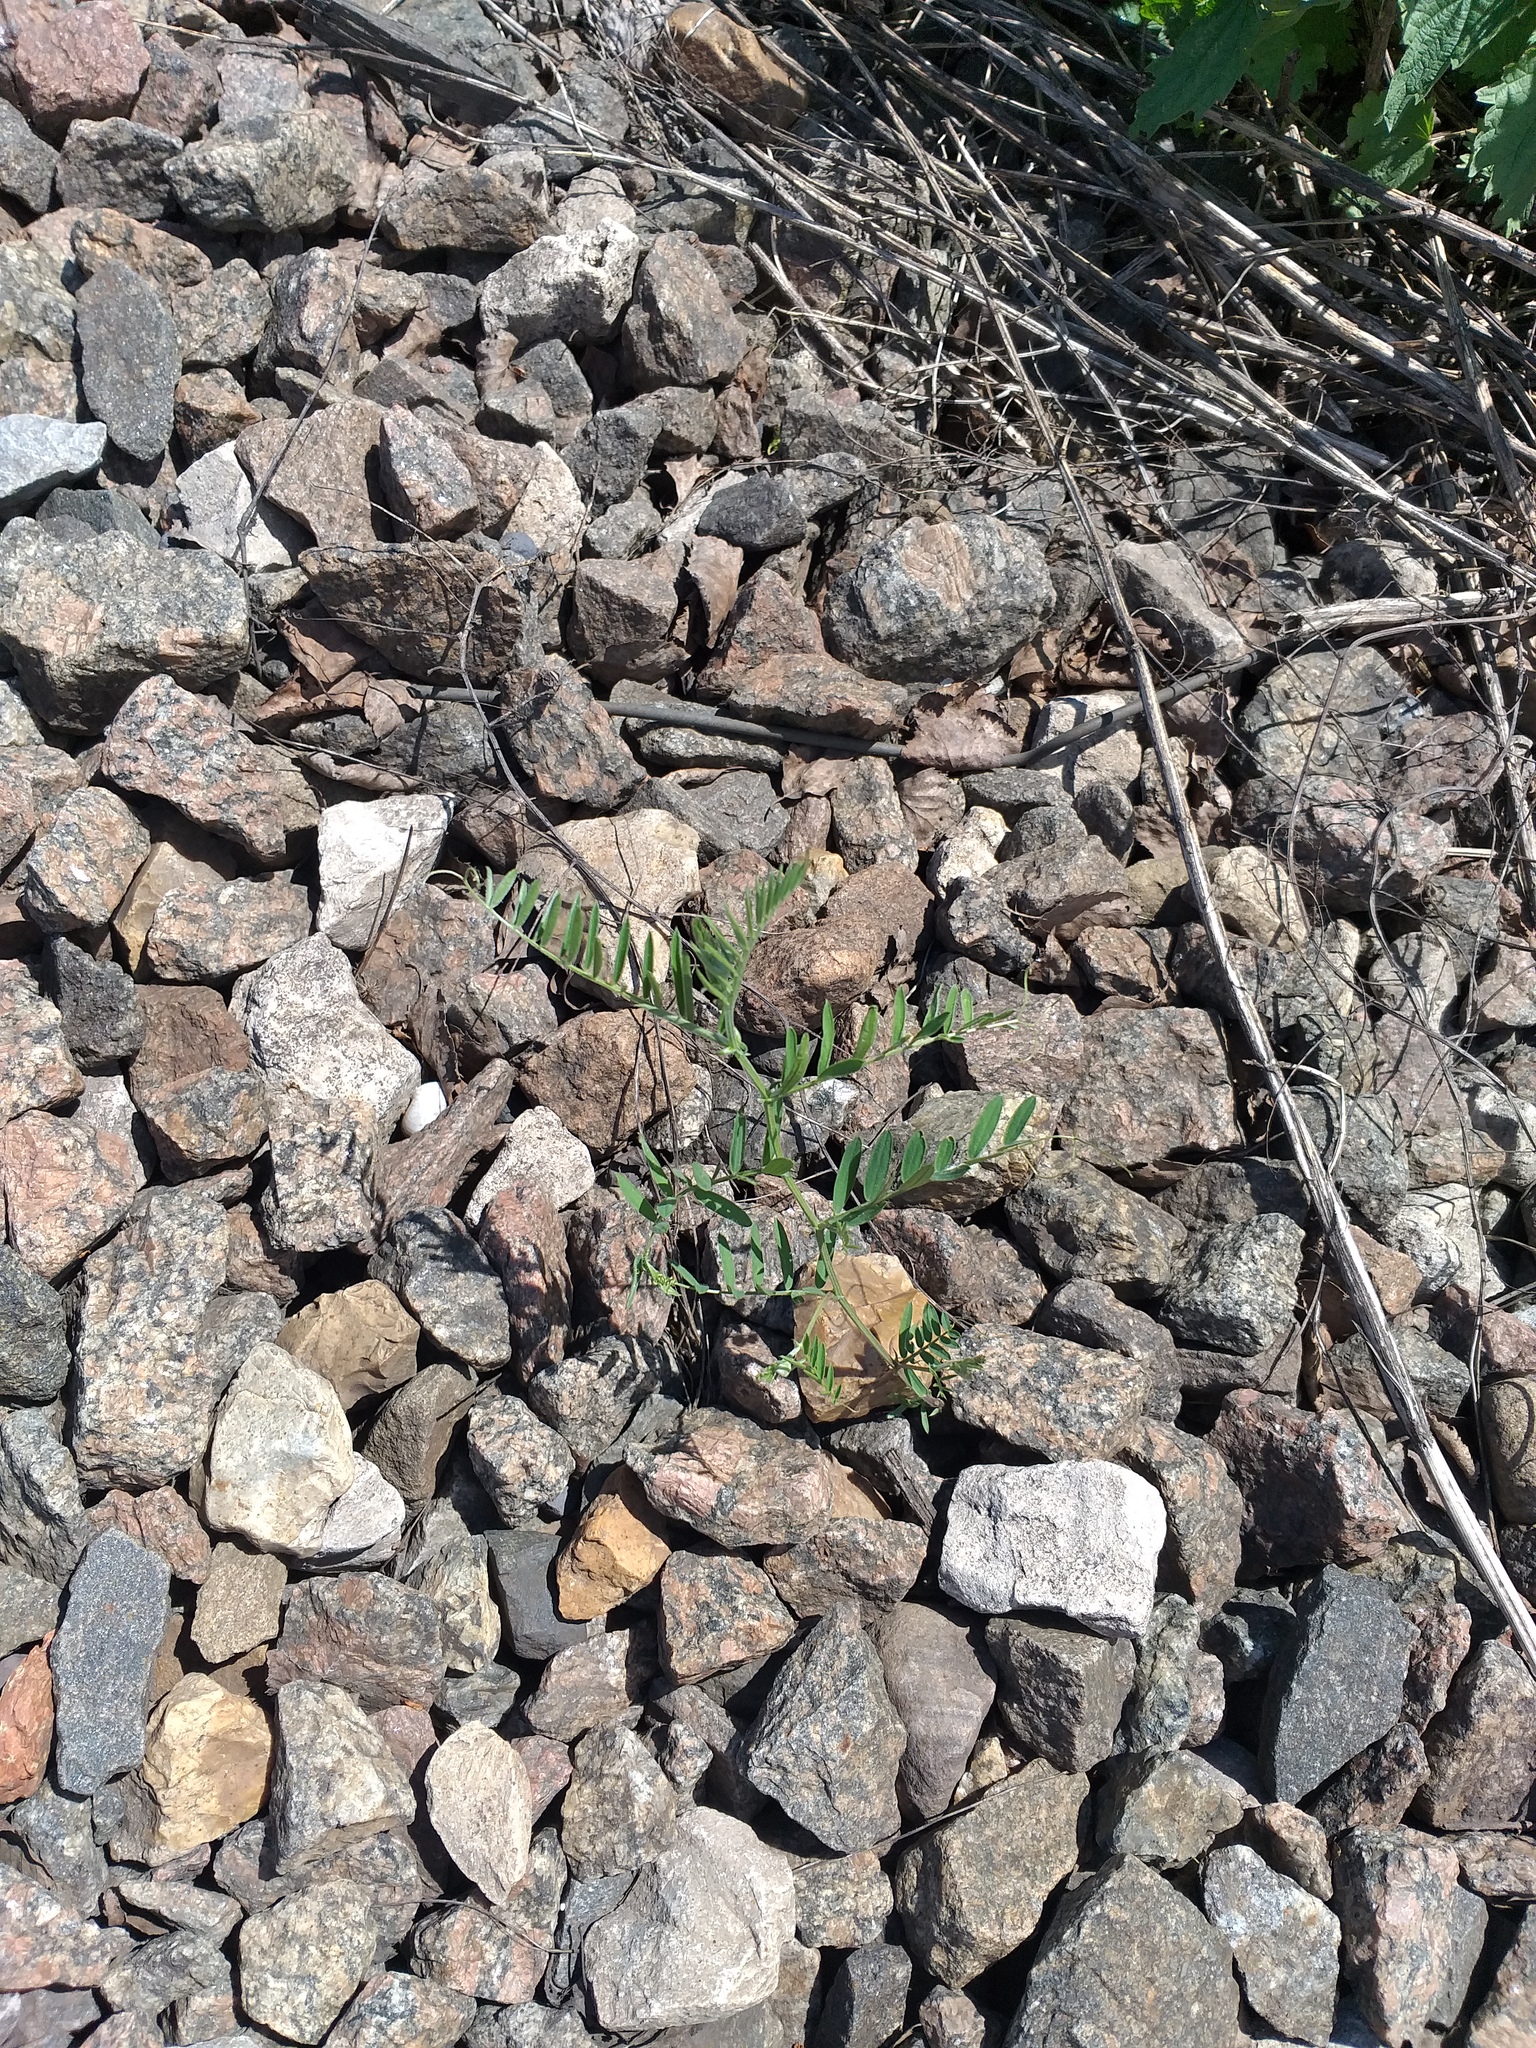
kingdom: Plantae
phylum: Tracheophyta
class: Magnoliopsida
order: Fabales
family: Fabaceae
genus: Vicia
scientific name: Vicia cracca
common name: Bird vetch
